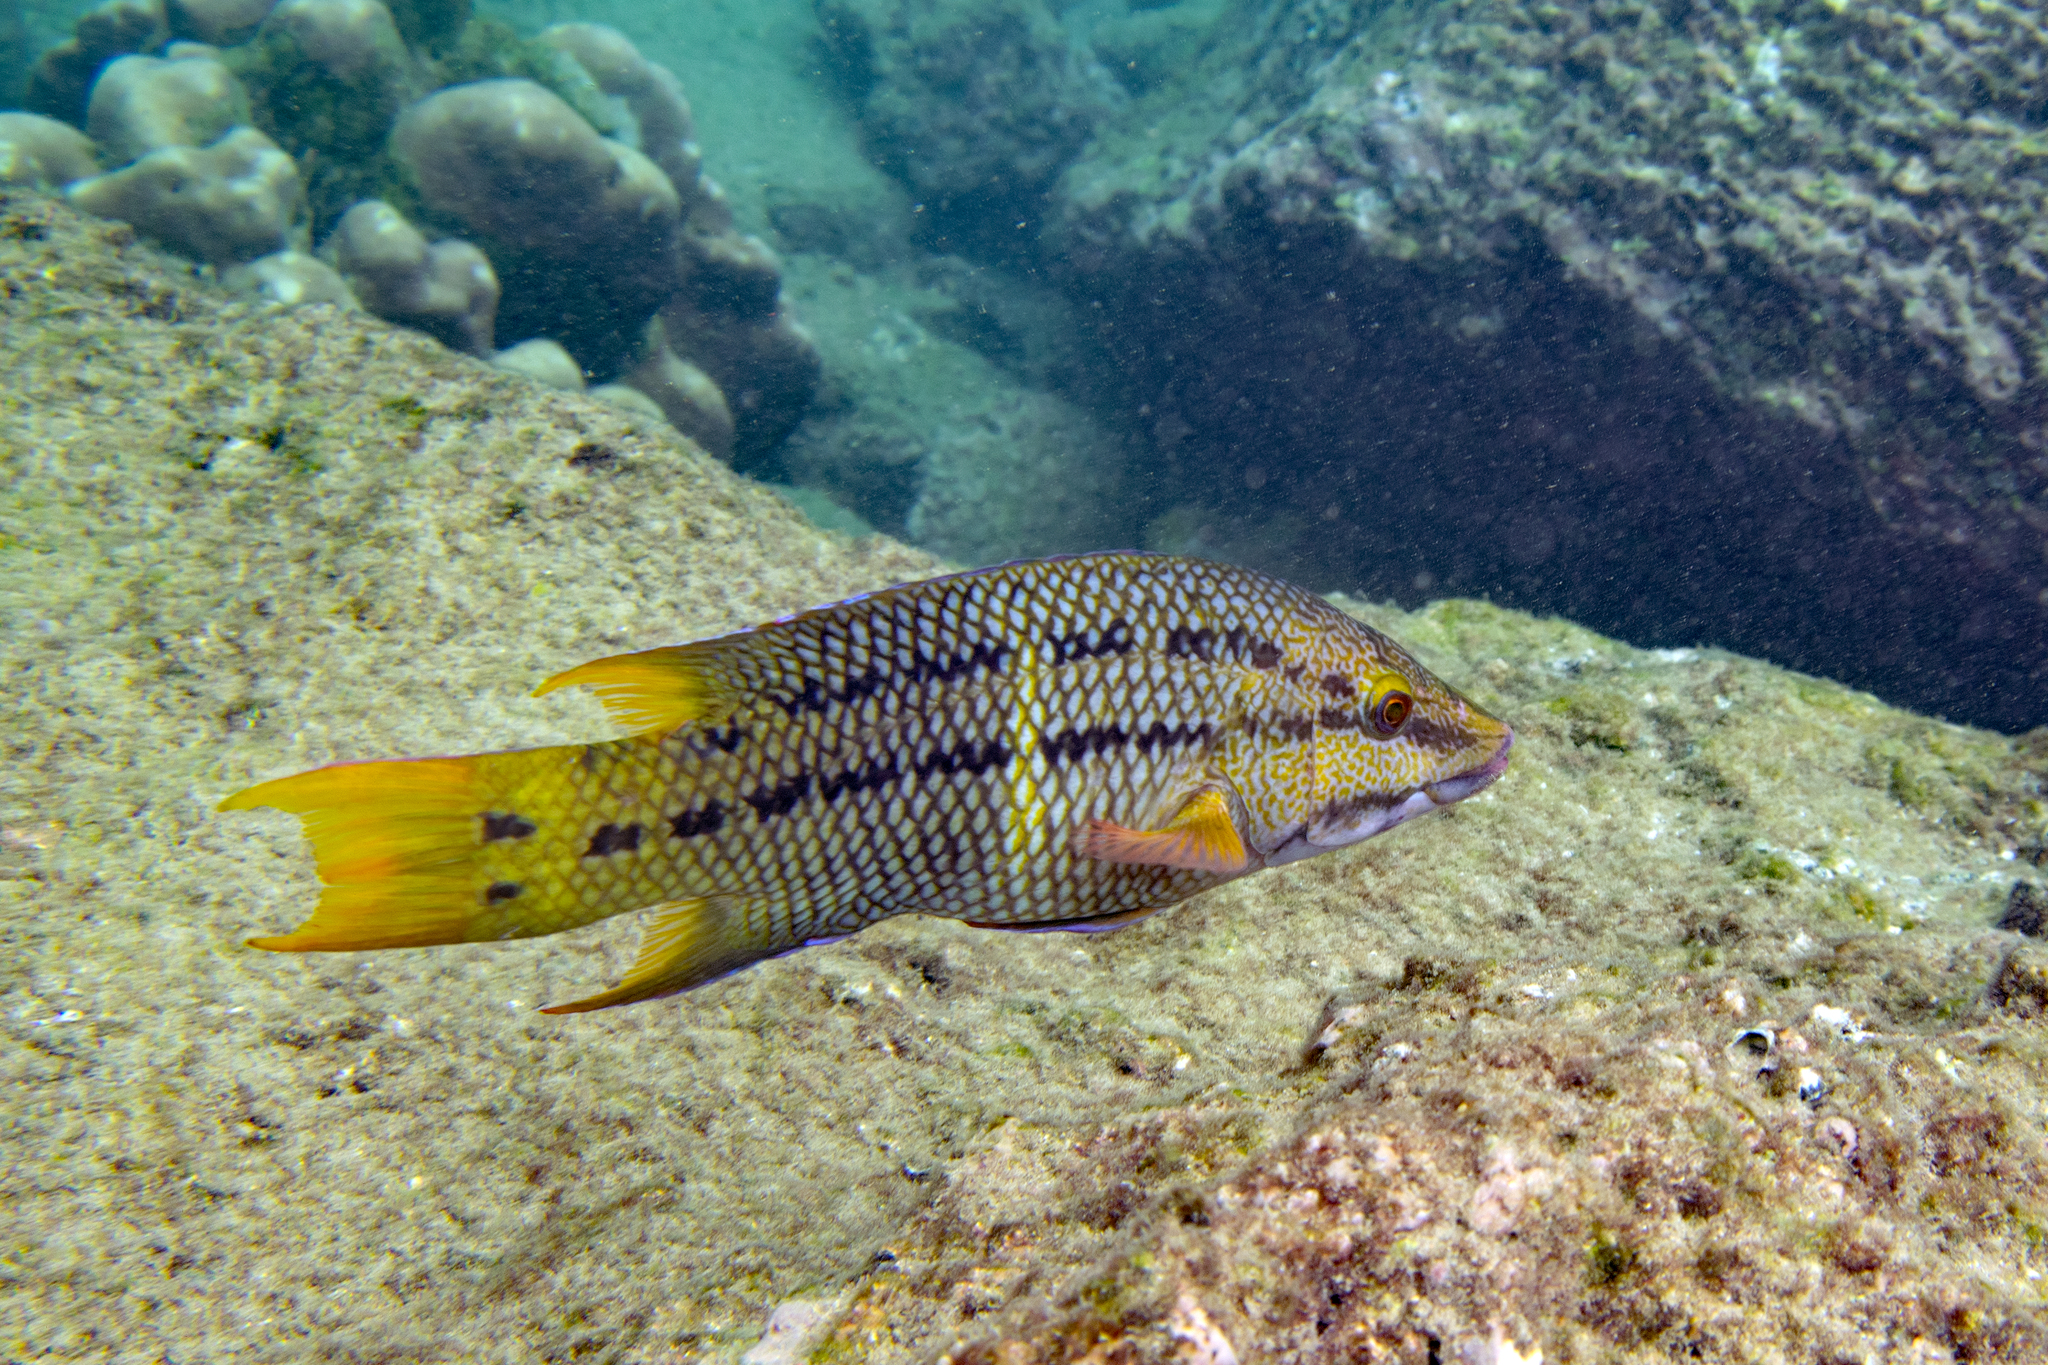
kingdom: Animalia
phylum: Chordata
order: Perciformes
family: Labridae
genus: Bodianus
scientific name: Bodianus diplotaenia
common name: Mexican hogfish
